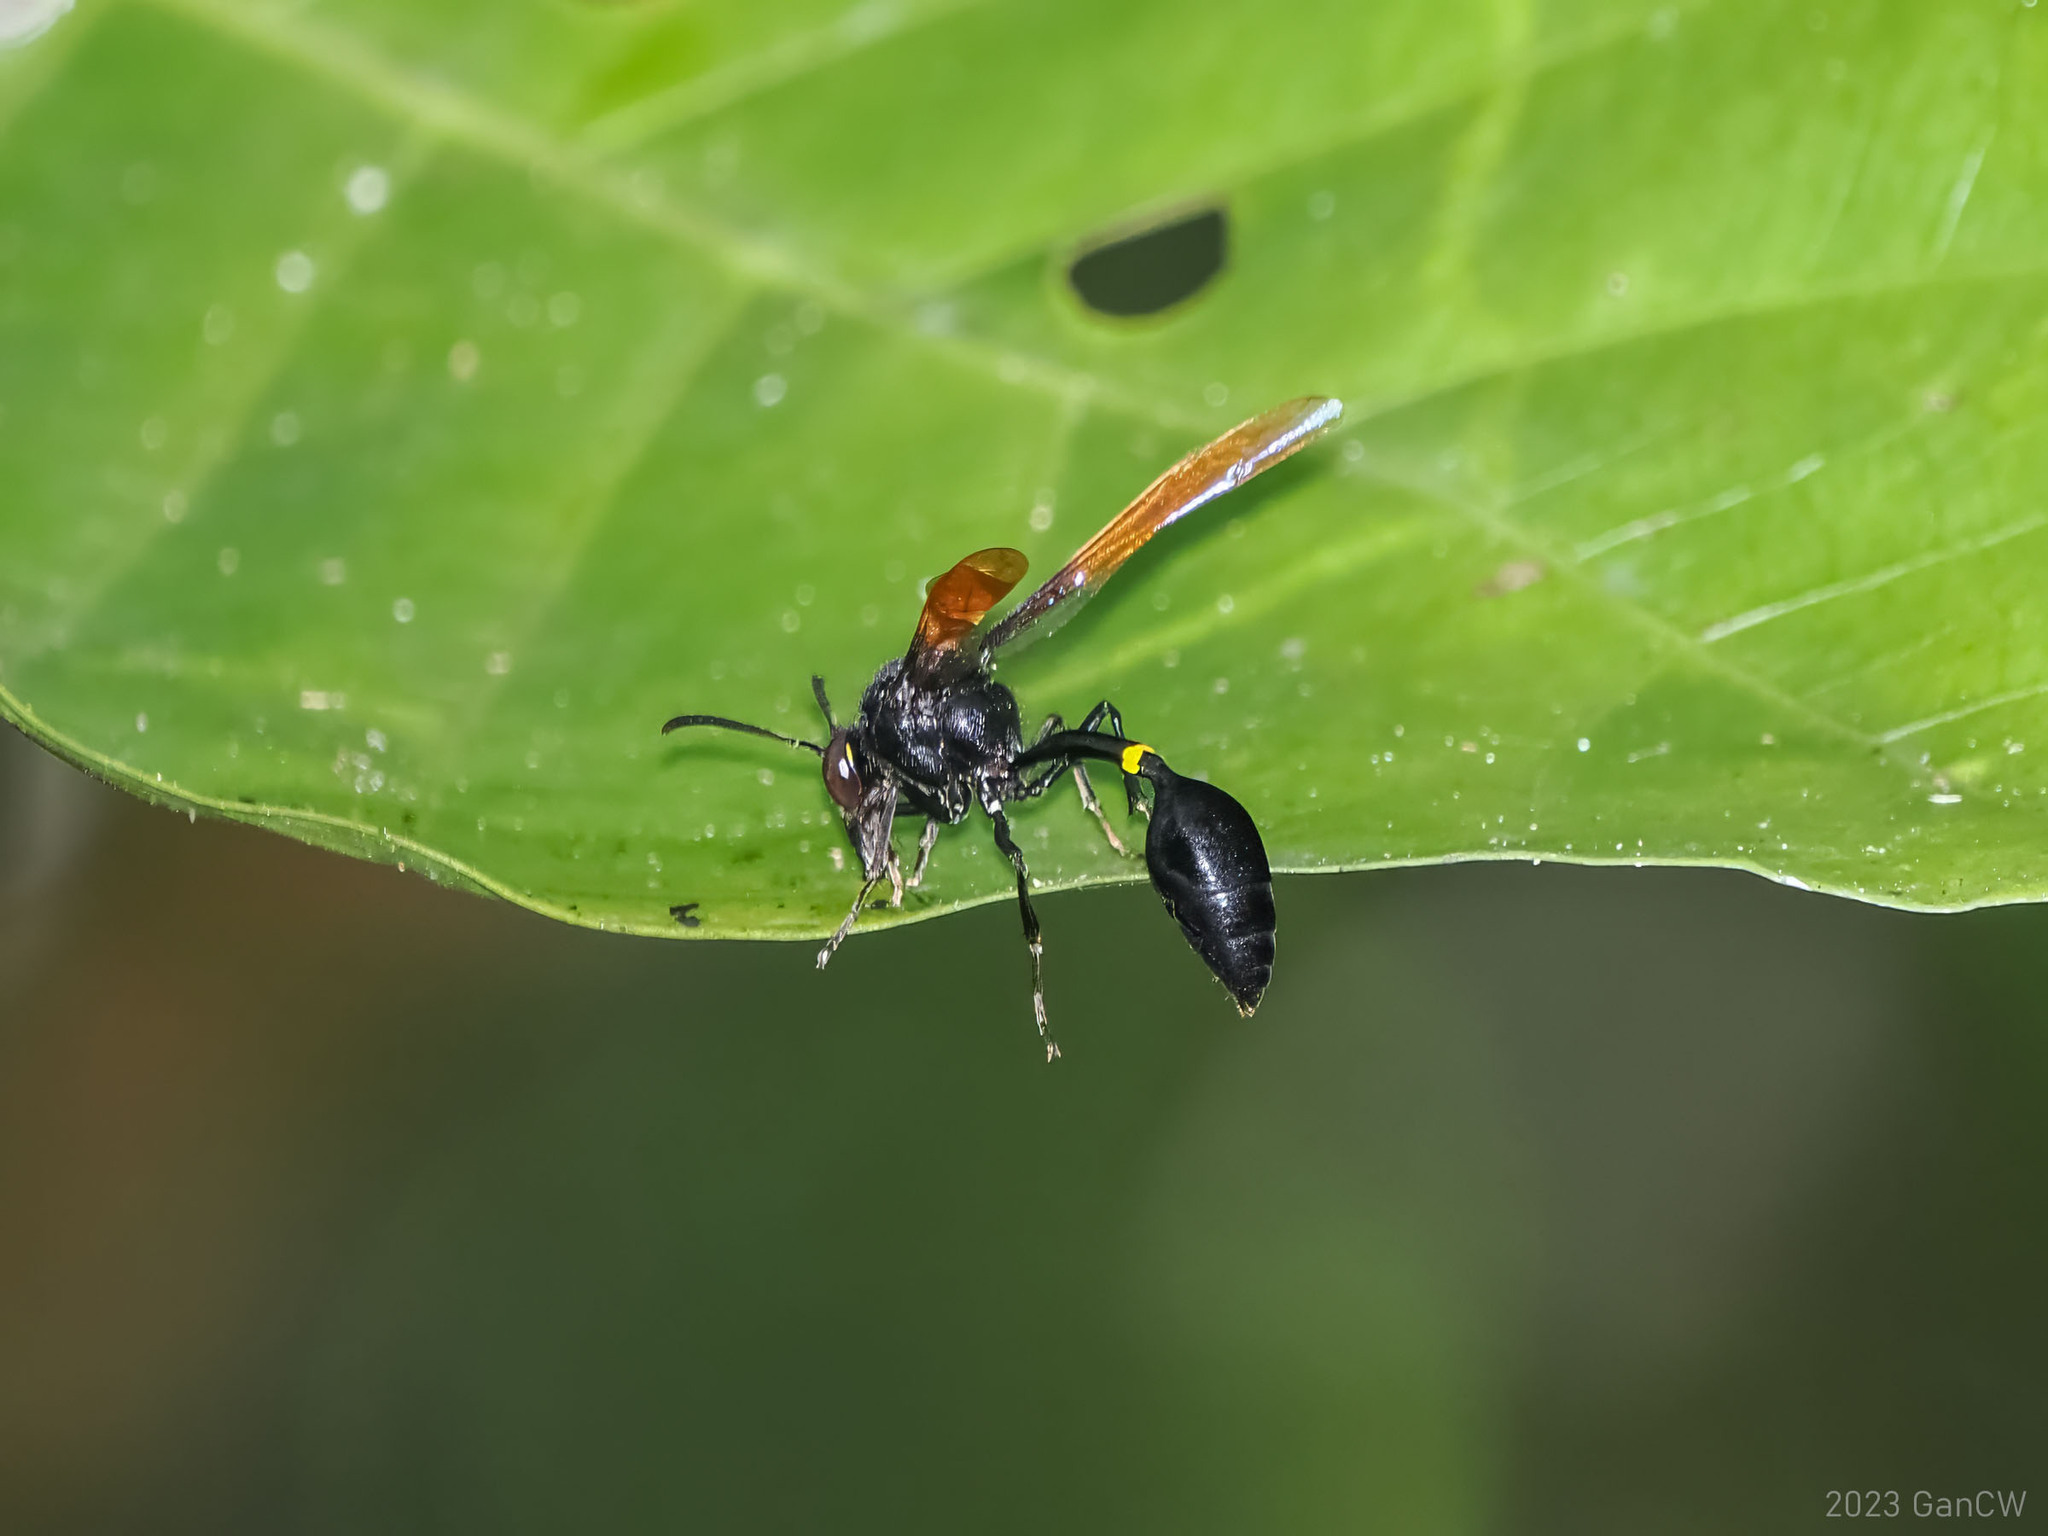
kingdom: Animalia
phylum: Arthropoda
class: Insecta
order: Hymenoptera
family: Eumenidae
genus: Phimenes
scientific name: Phimenes incola
